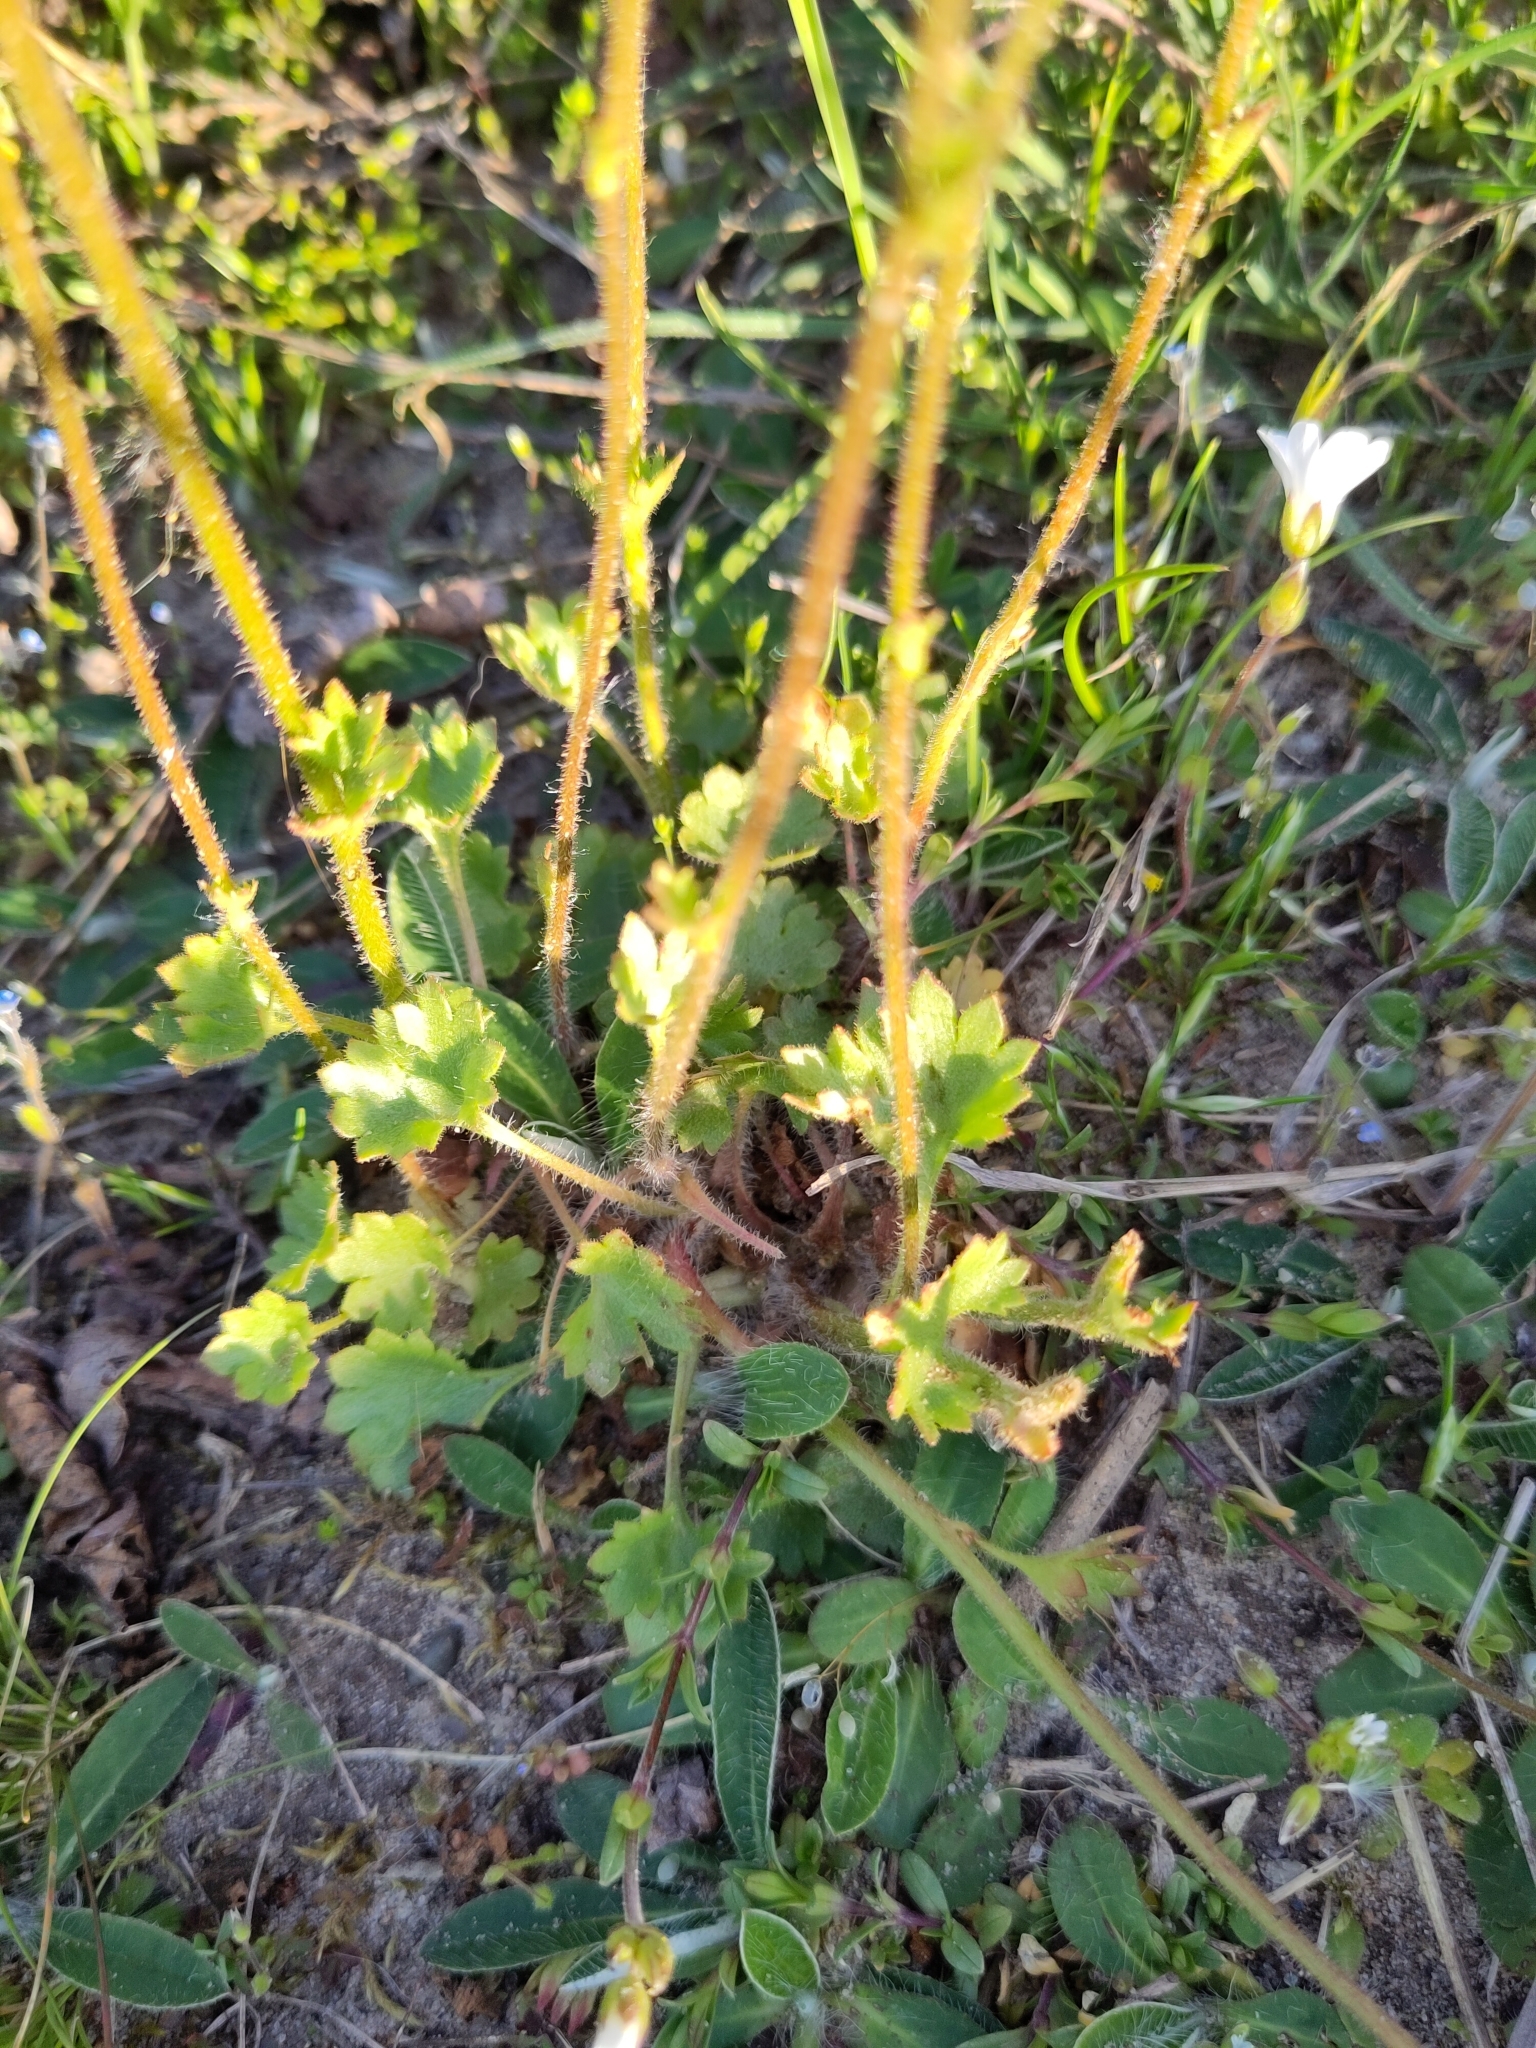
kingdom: Plantae
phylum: Tracheophyta
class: Magnoliopsida
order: Saxifragales
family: Saxifragaceae
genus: Saxifraga
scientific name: Saxifraga granulata
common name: Meadow saxifrage
